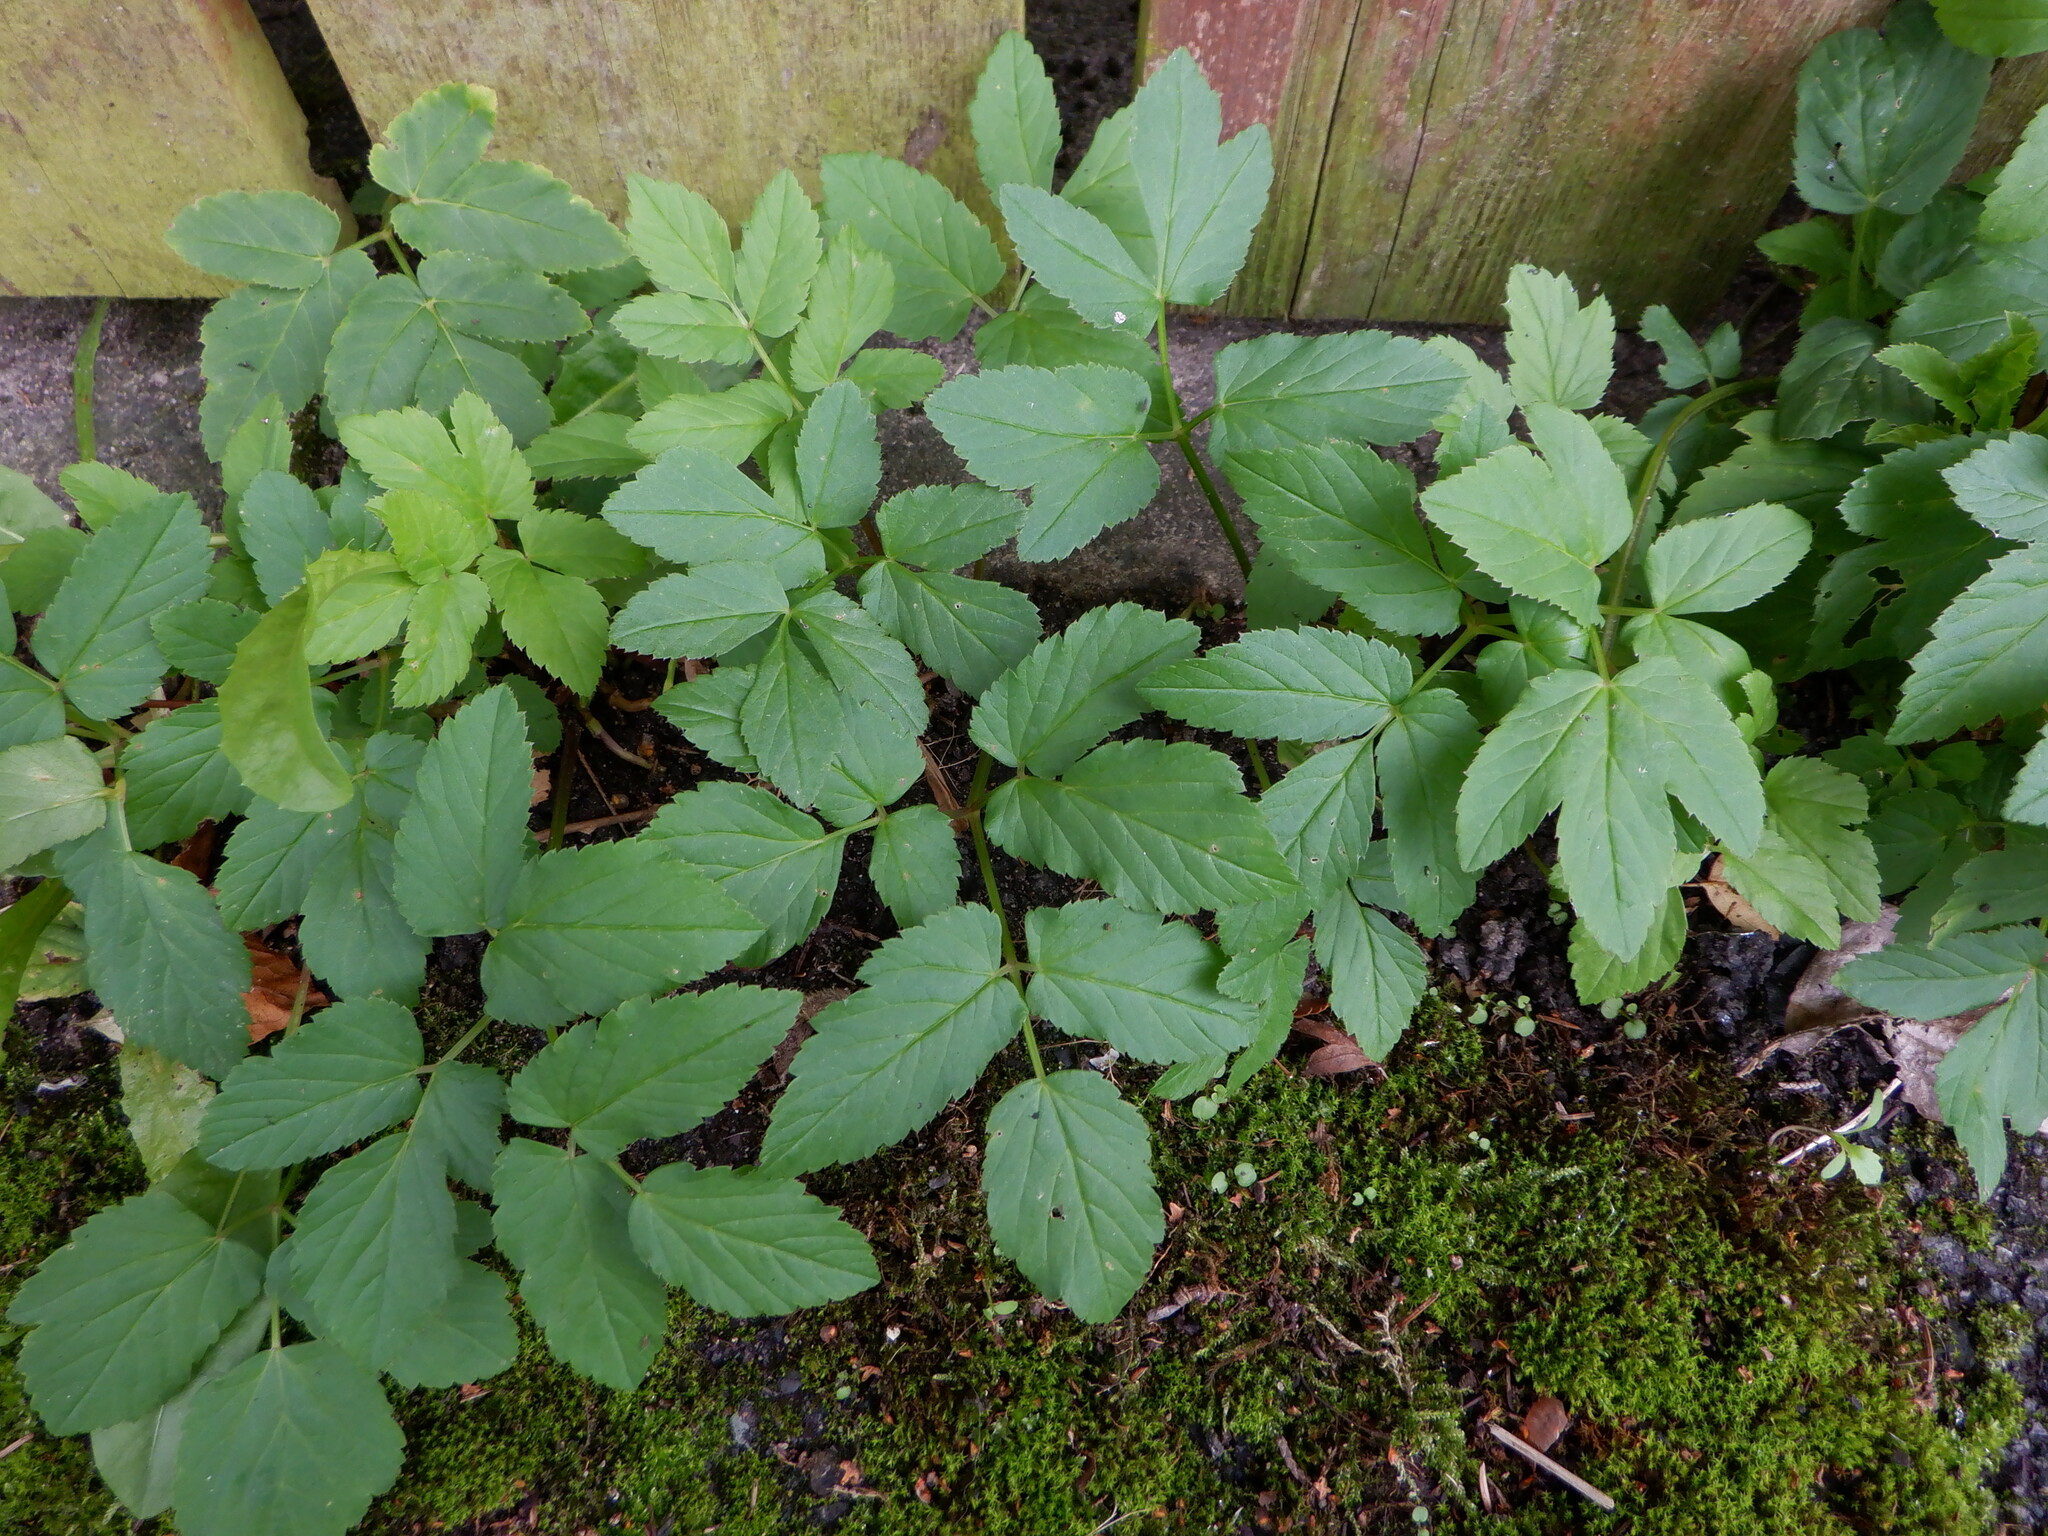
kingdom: Plantae
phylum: Tracheophyta
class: Magnoliopsida
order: Apiales
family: Apiaceae
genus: Aegopodium
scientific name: Aegopodium podagraria
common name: Ground-elder
